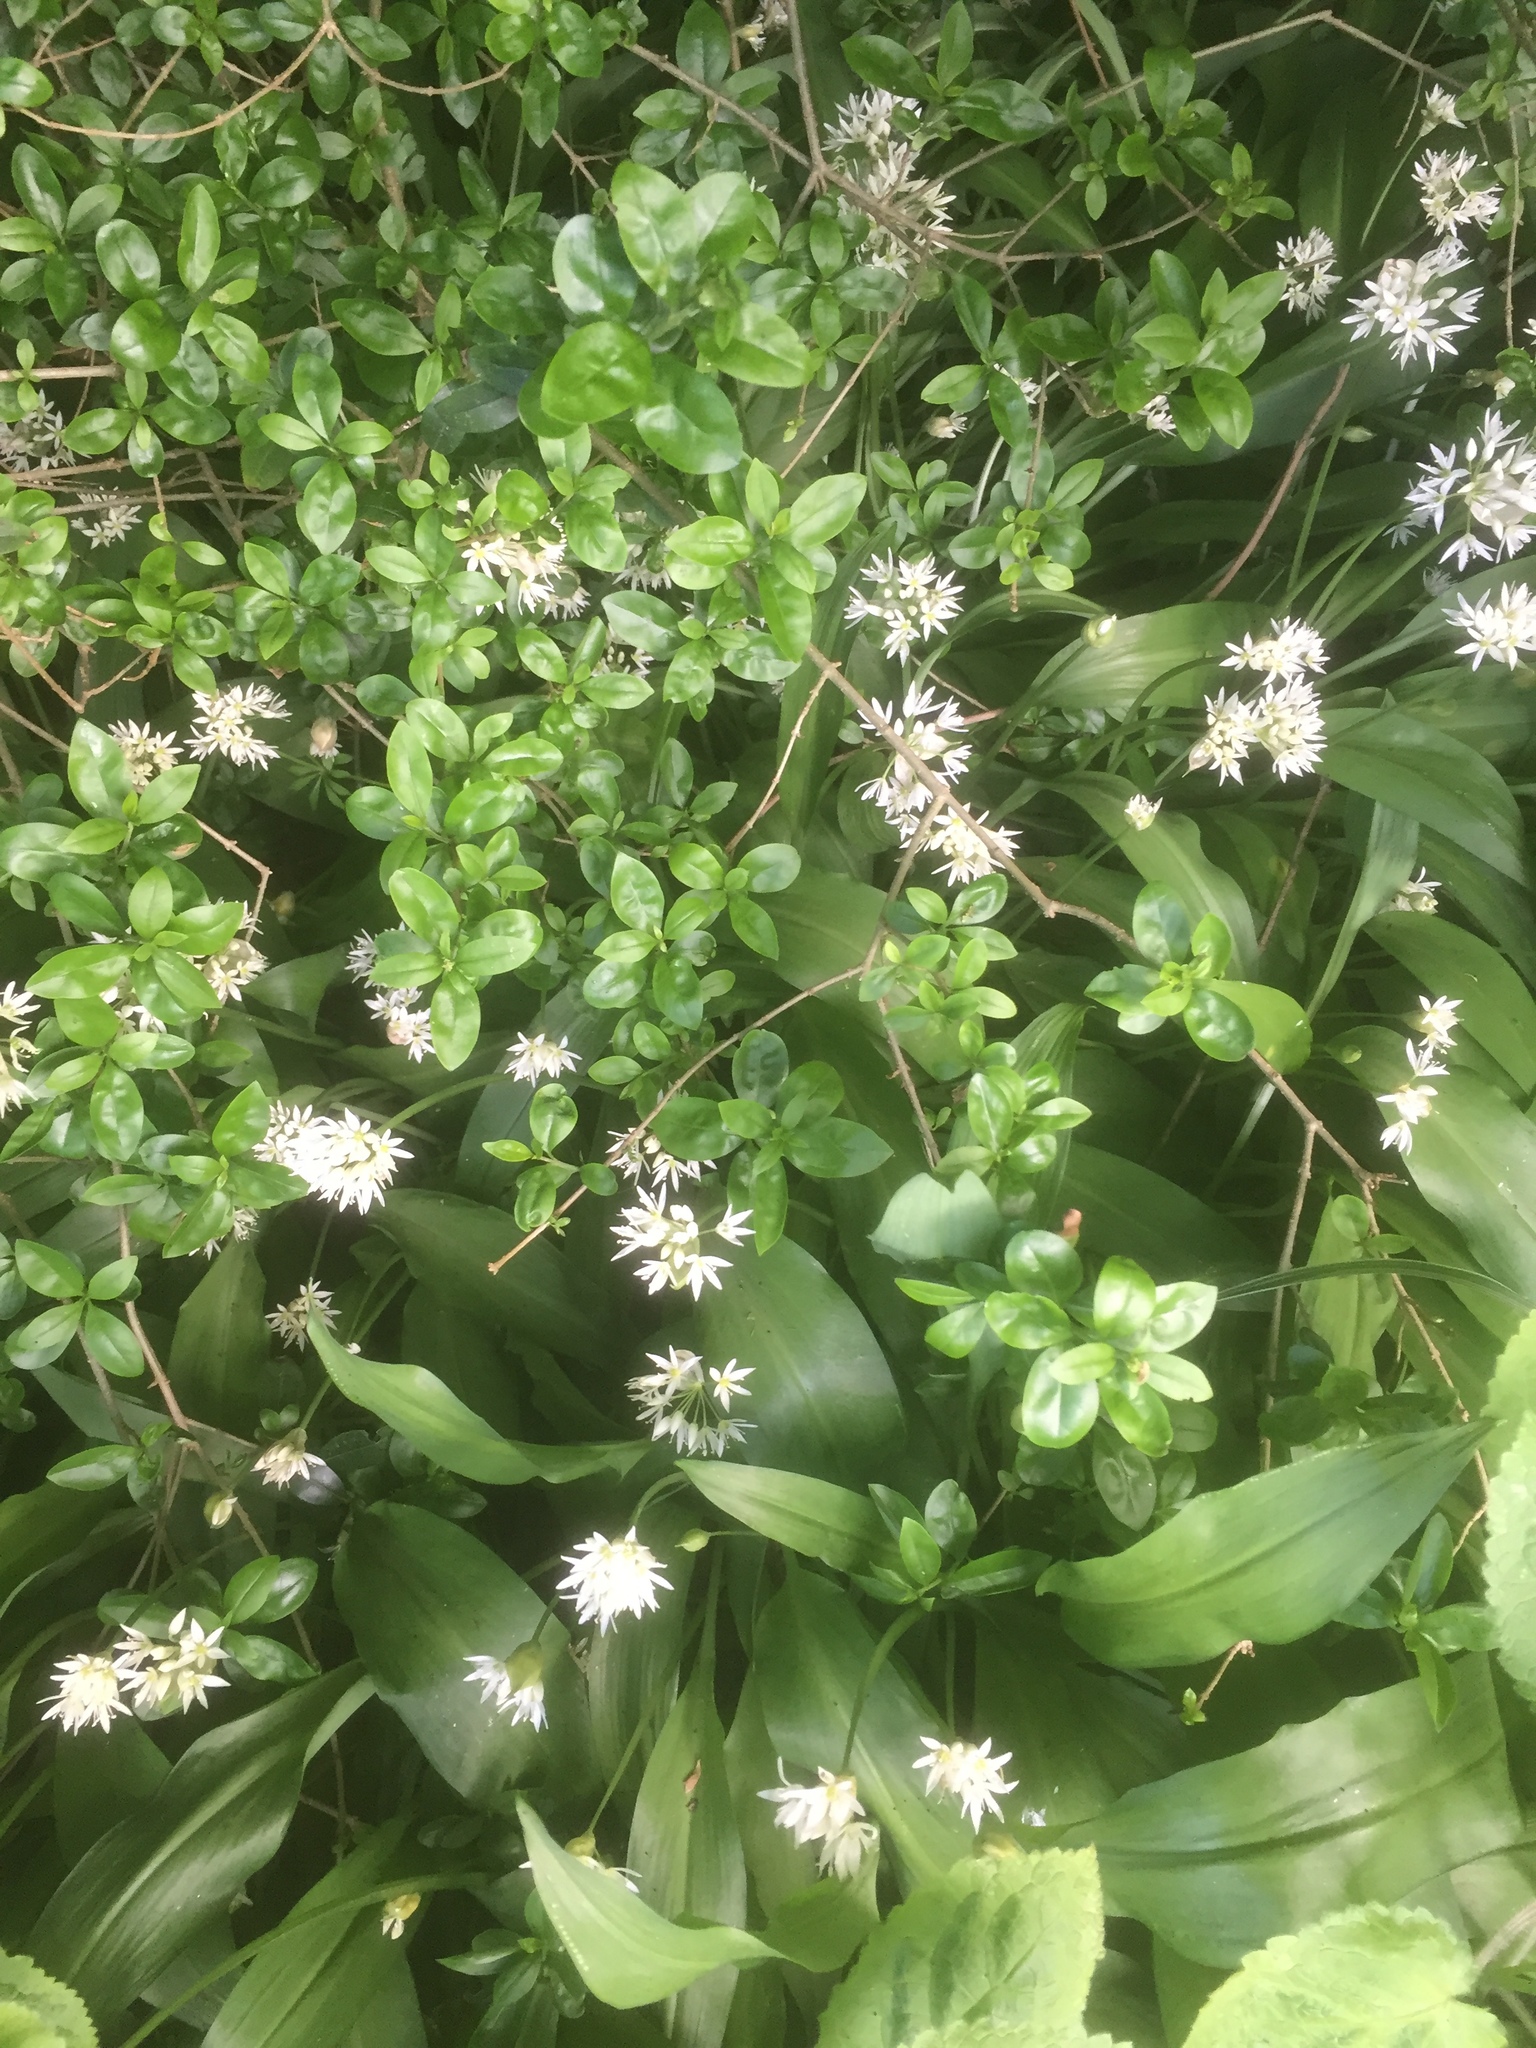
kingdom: Plantae
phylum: Tracheophyta
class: Liliopsida
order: Asparagales
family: Amaryllidaceae
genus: Allium
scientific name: Allium ursinum
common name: Ramsons
